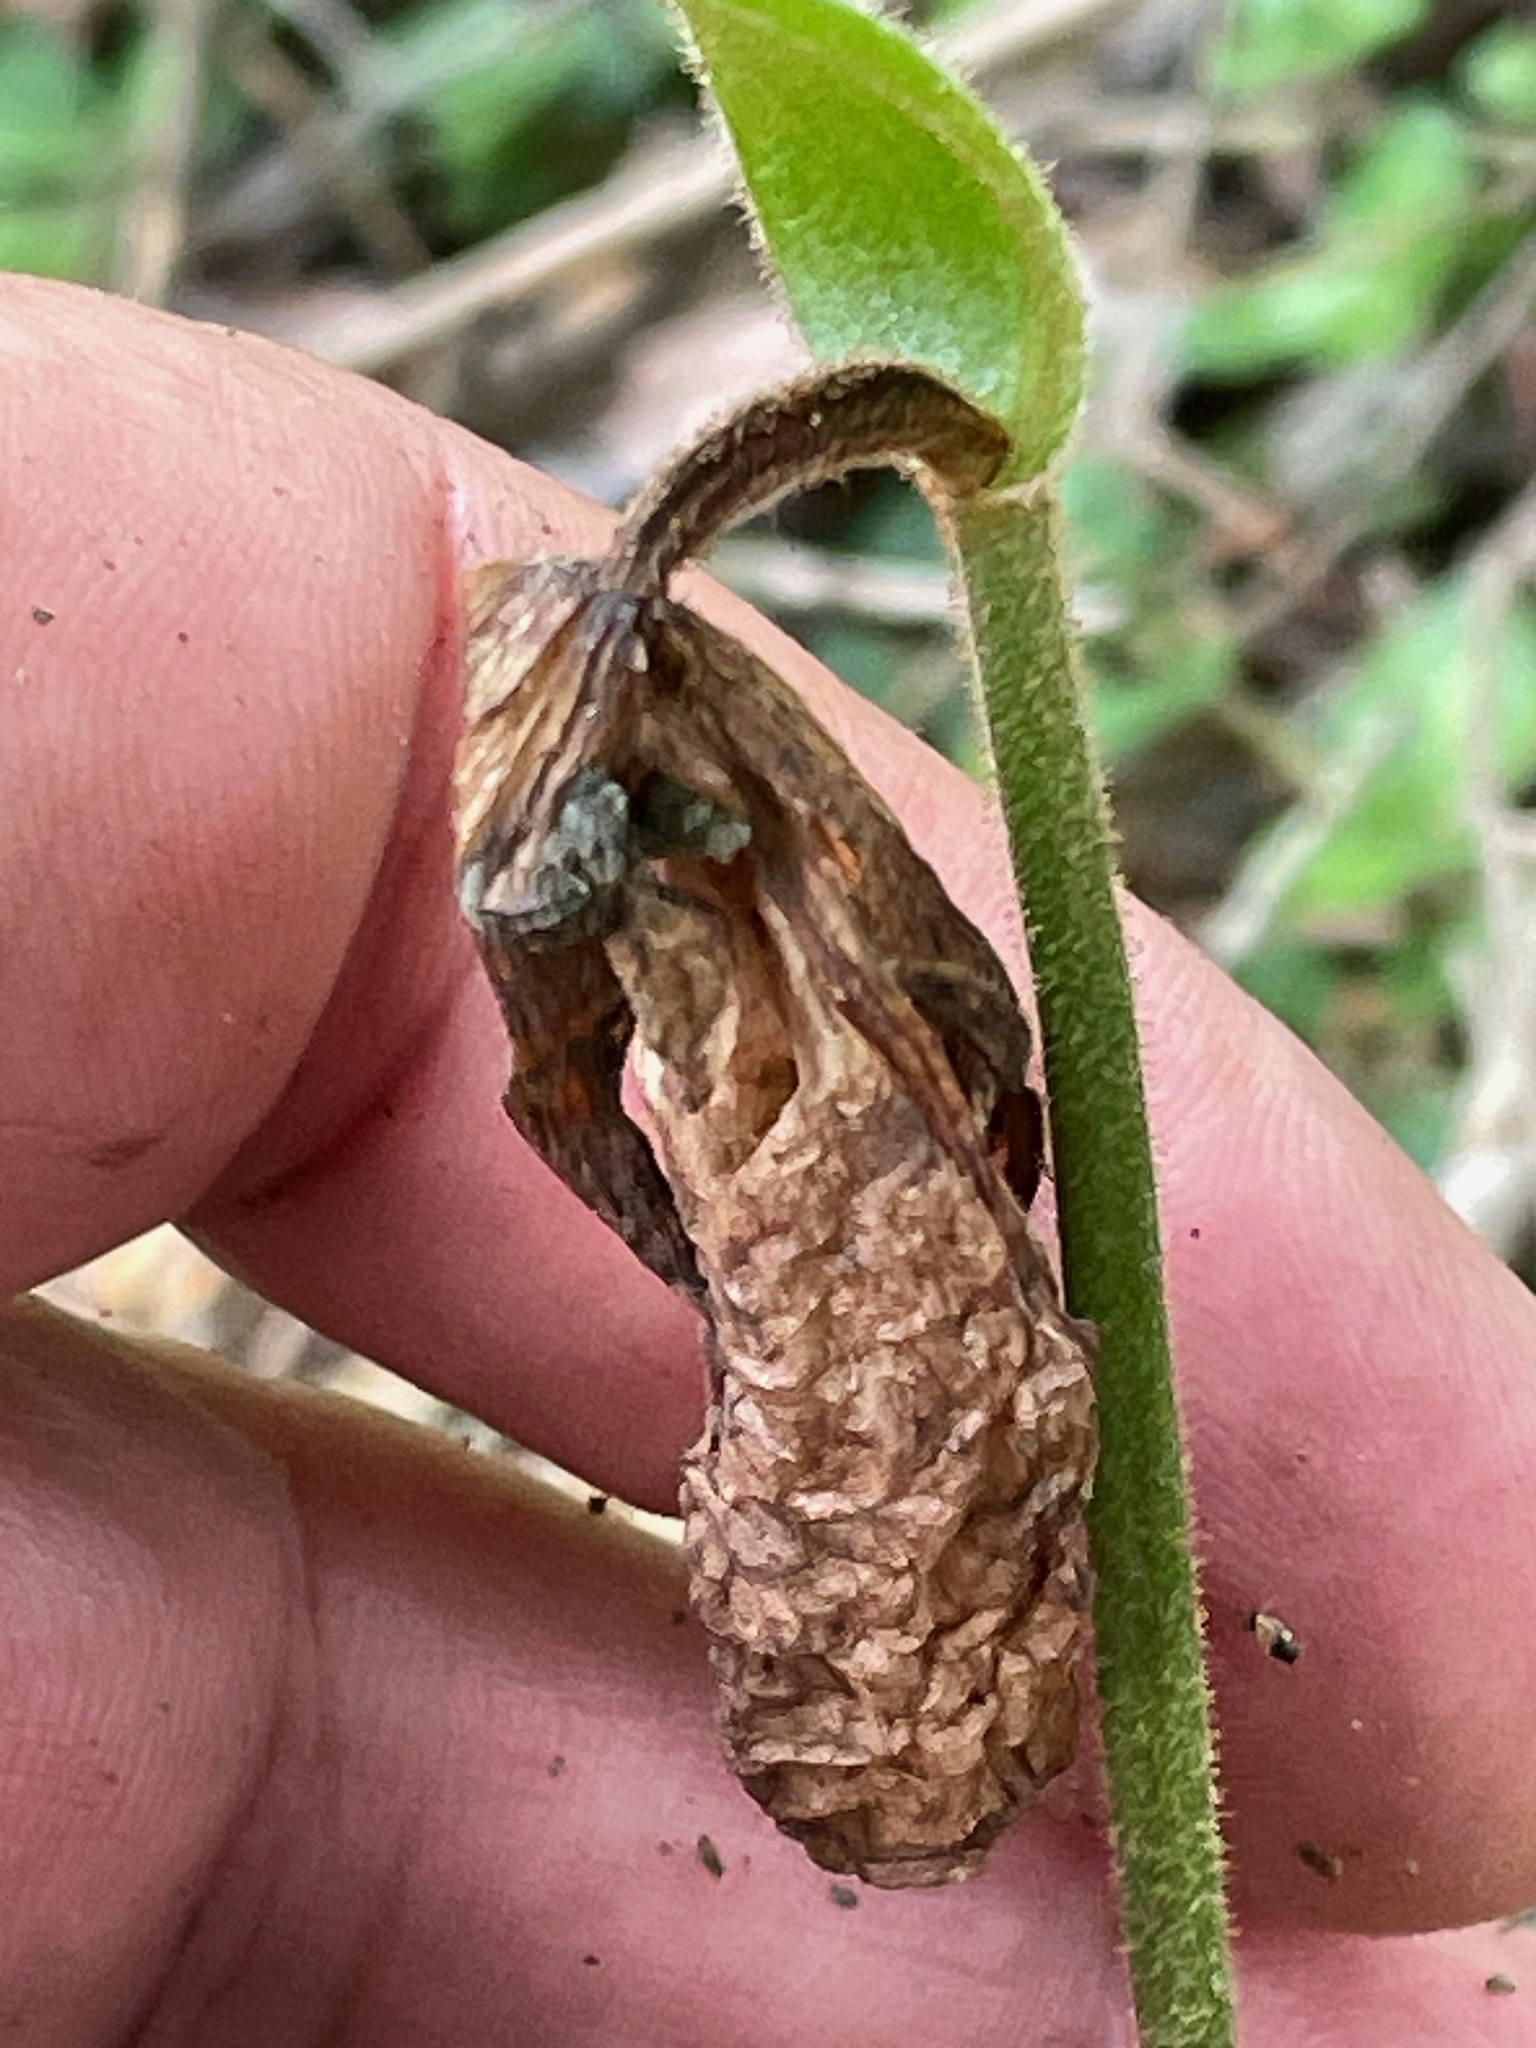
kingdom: Plantae
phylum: Tracheophyta
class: Liliopsida
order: Asparagales
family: Orchidaceae
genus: Cypripedium
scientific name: Cypripedium acaule
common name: Pink lady's-slipper
